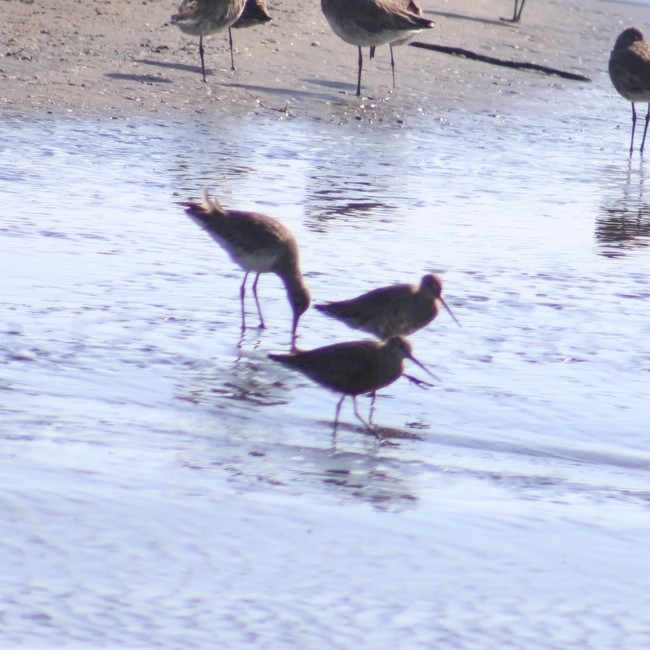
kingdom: Animalia
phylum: Chordata
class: Aves
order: Charadriiformes
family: Scolopacidae
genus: Limosa
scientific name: Limosa haemastica
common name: Hudsonian godwit
